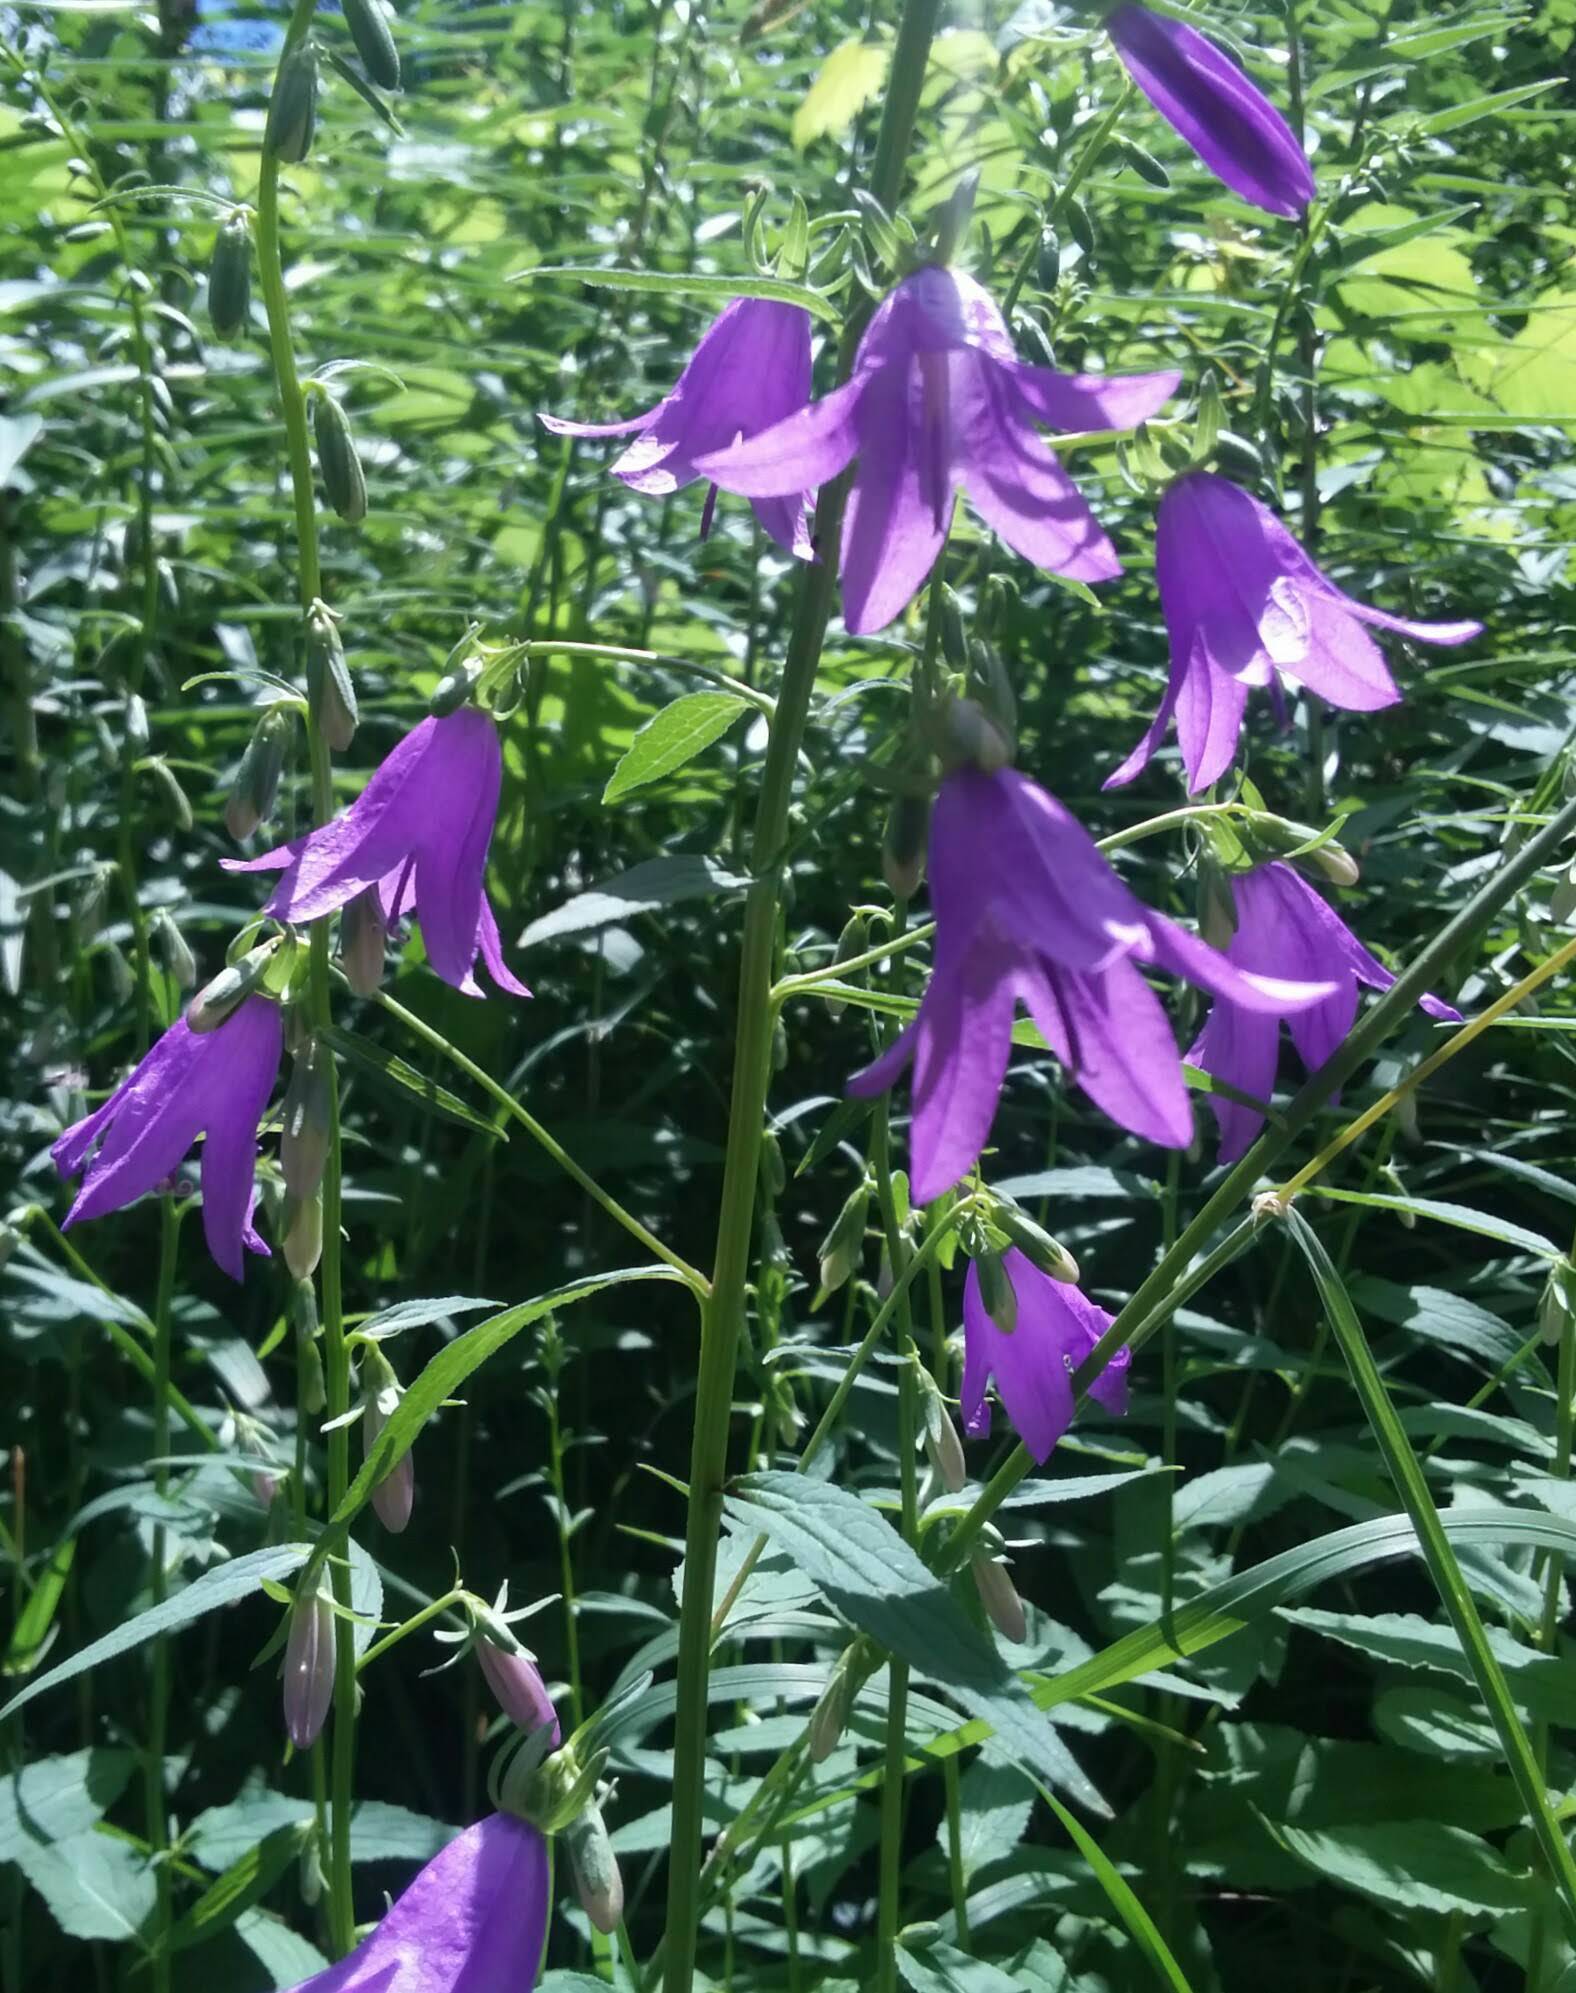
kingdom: Plantae
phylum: Tracheophyta
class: Magnoliopsida
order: Asterales
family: Campanulaceae
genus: Campanula
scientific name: Campanula rapunculoides
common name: Creeping bellflower
